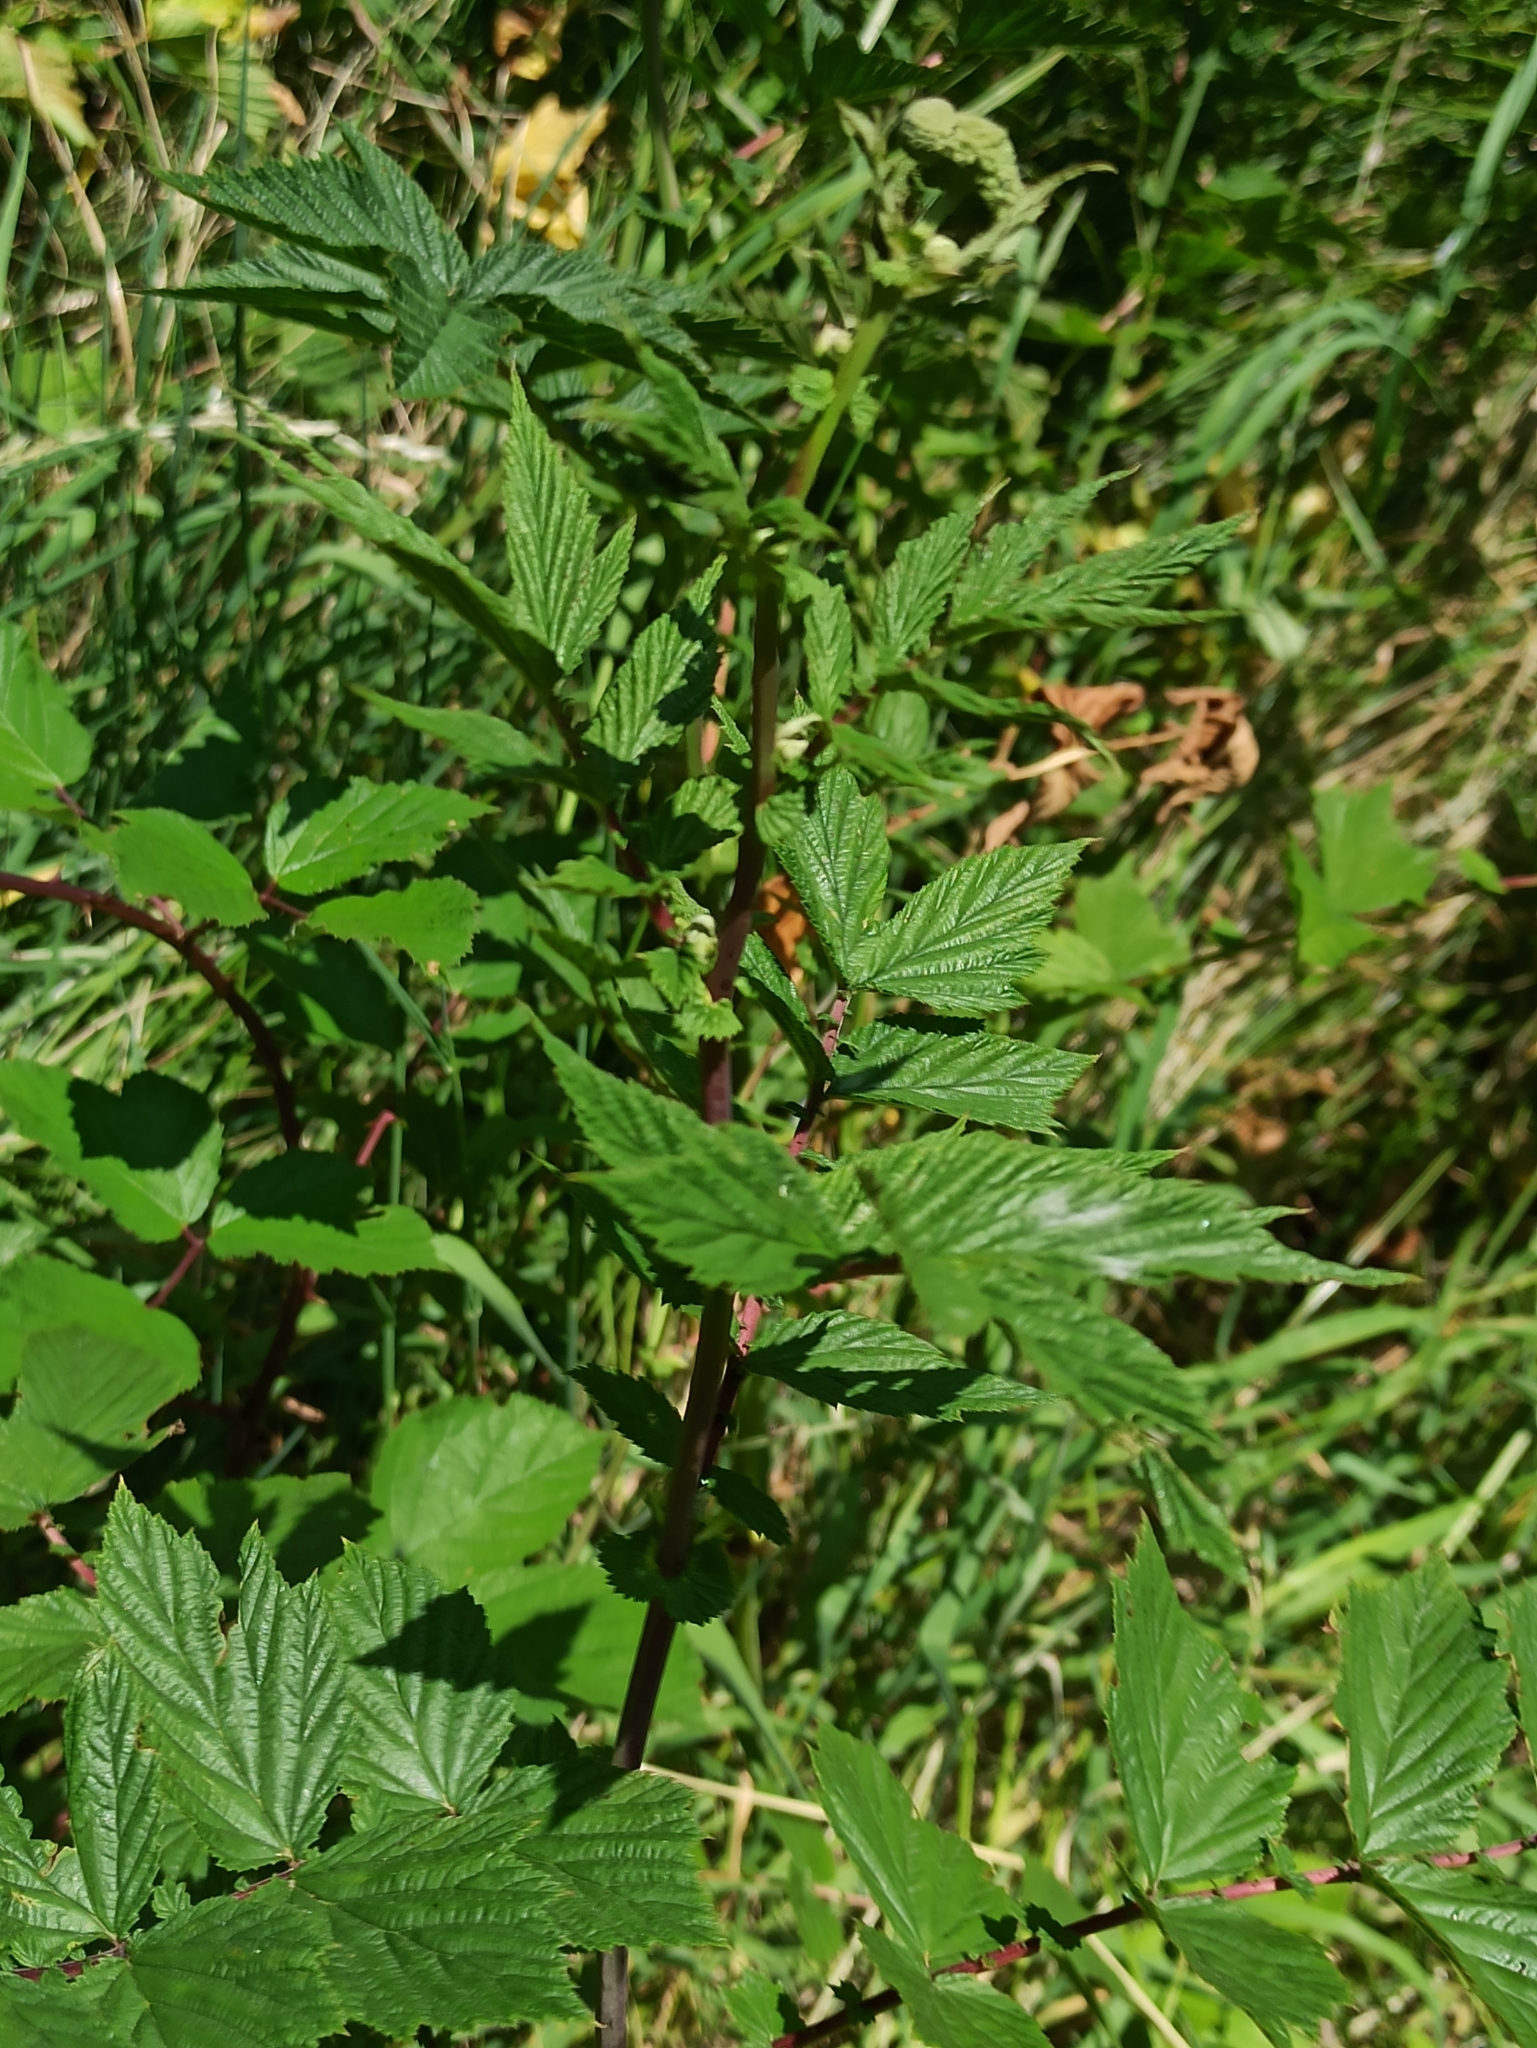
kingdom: Plantae
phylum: Tracheophyta
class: Magnoliopsida
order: Rosales
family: Rosaceae
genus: Filipendula
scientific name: Filipendula ulmaria
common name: Meadowsweet
